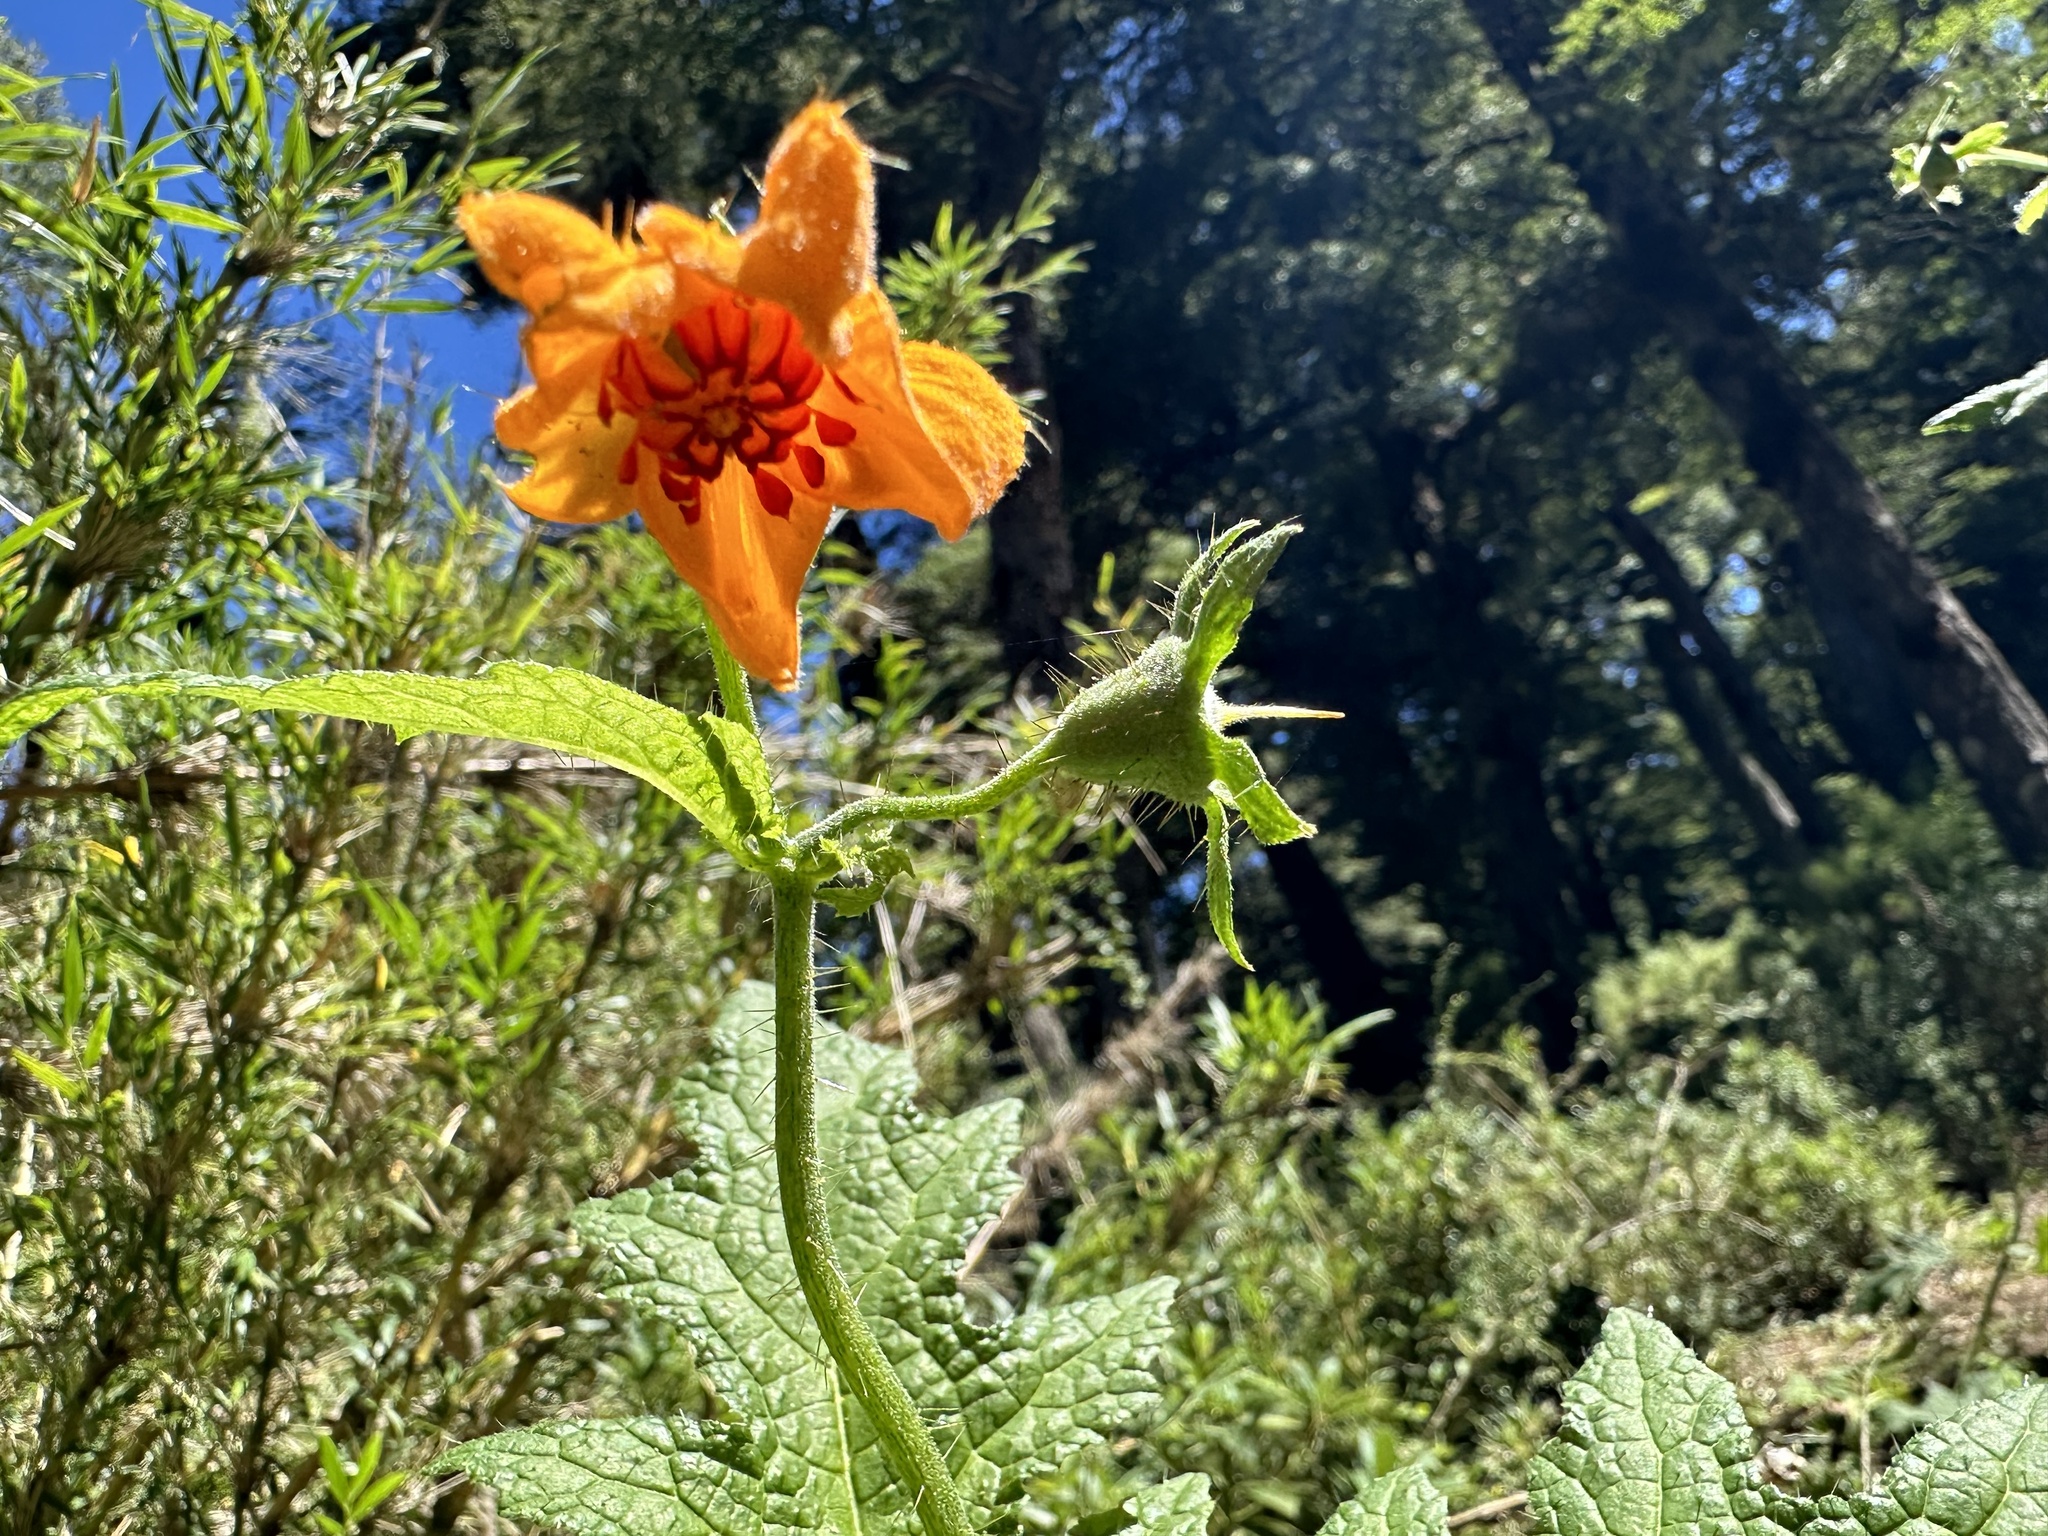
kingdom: Plantae
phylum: Tracheophyta
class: Magnoliopsida
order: Cornales
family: Loasaceae
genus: Loasa
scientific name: Loasa acanthifolia
